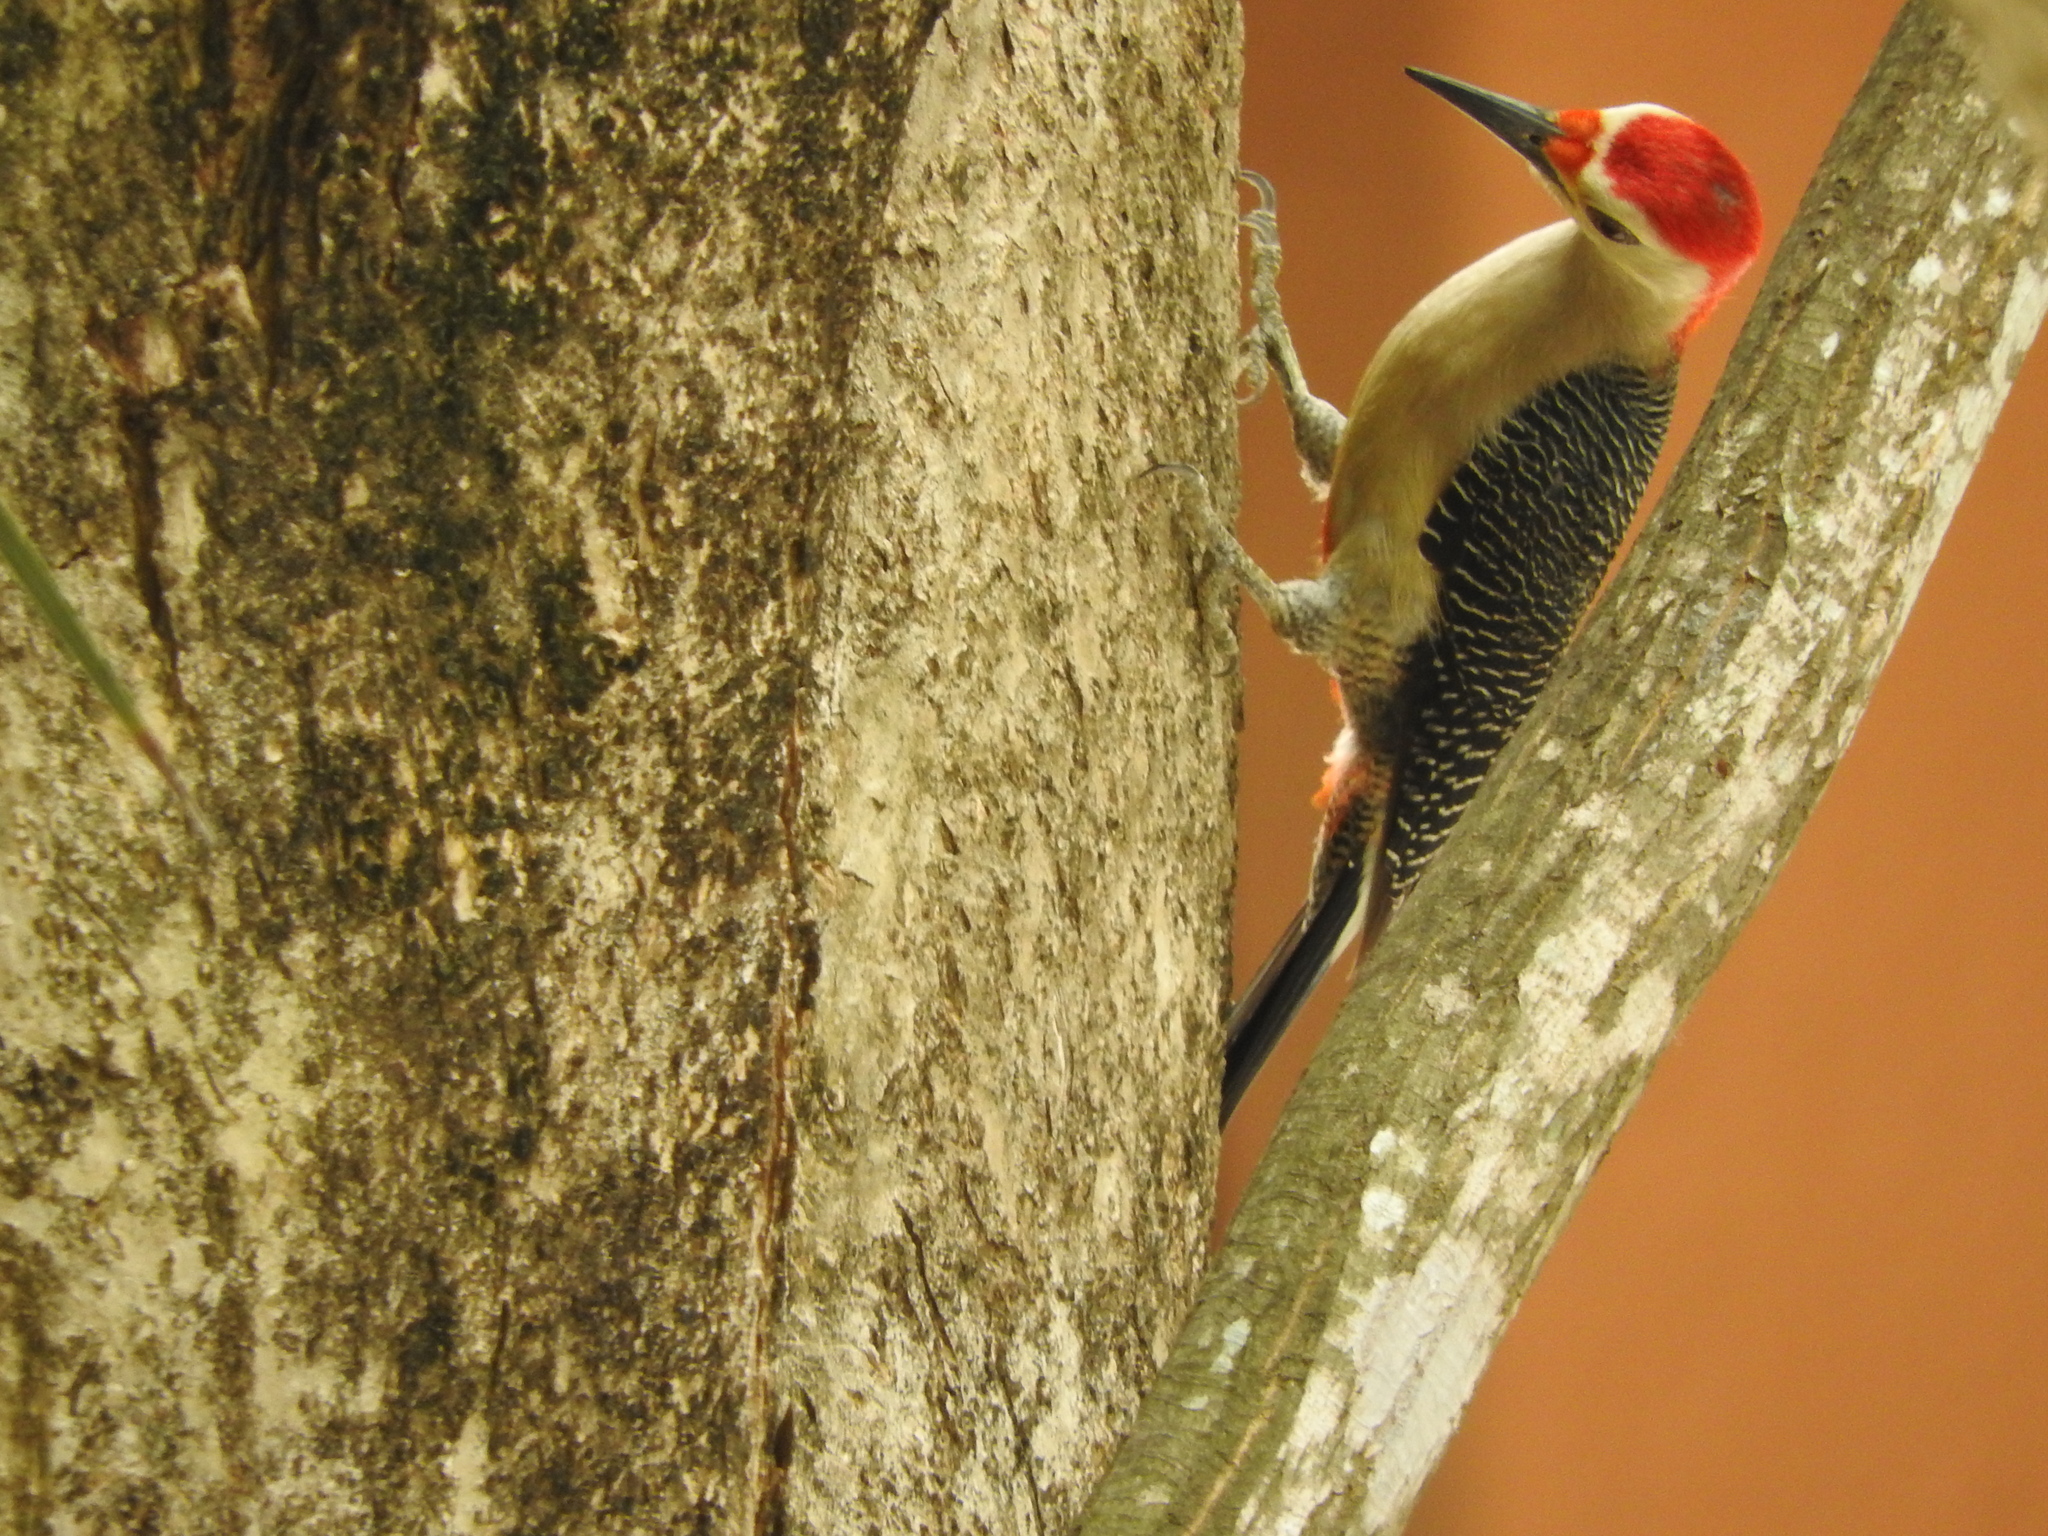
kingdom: Animalia
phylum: Chordata
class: Aves
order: Piciformes
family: Picidae
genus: Melanerpes
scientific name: Melanerpes santacruzi
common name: Velasquez's woodpecker
